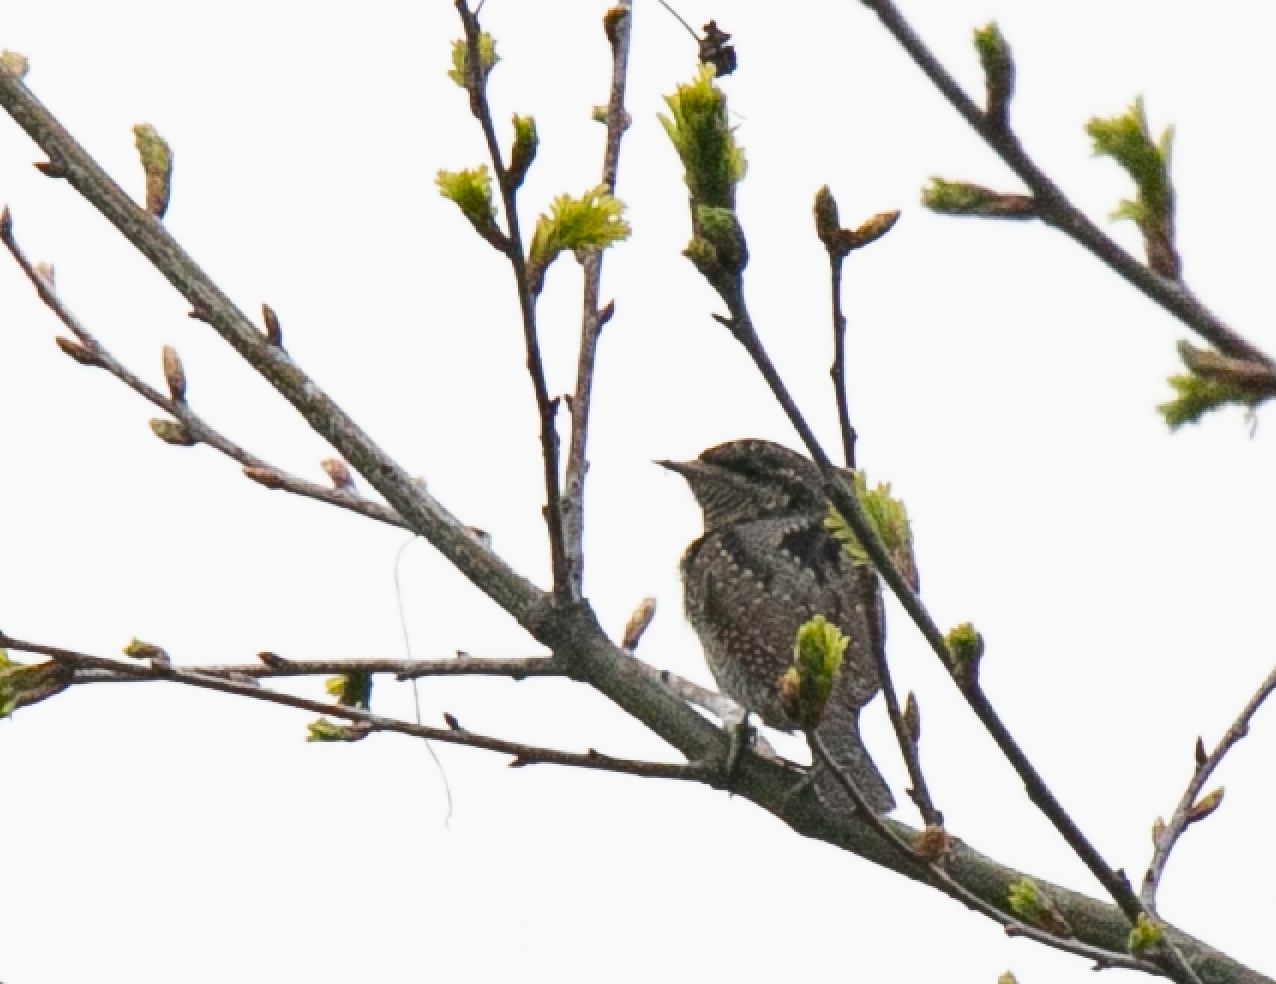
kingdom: Animalia
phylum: Chordata
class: Aves
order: Piciformes
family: Picidae
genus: Jynx
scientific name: Jynx torquilla
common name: Eurasian wryneck
